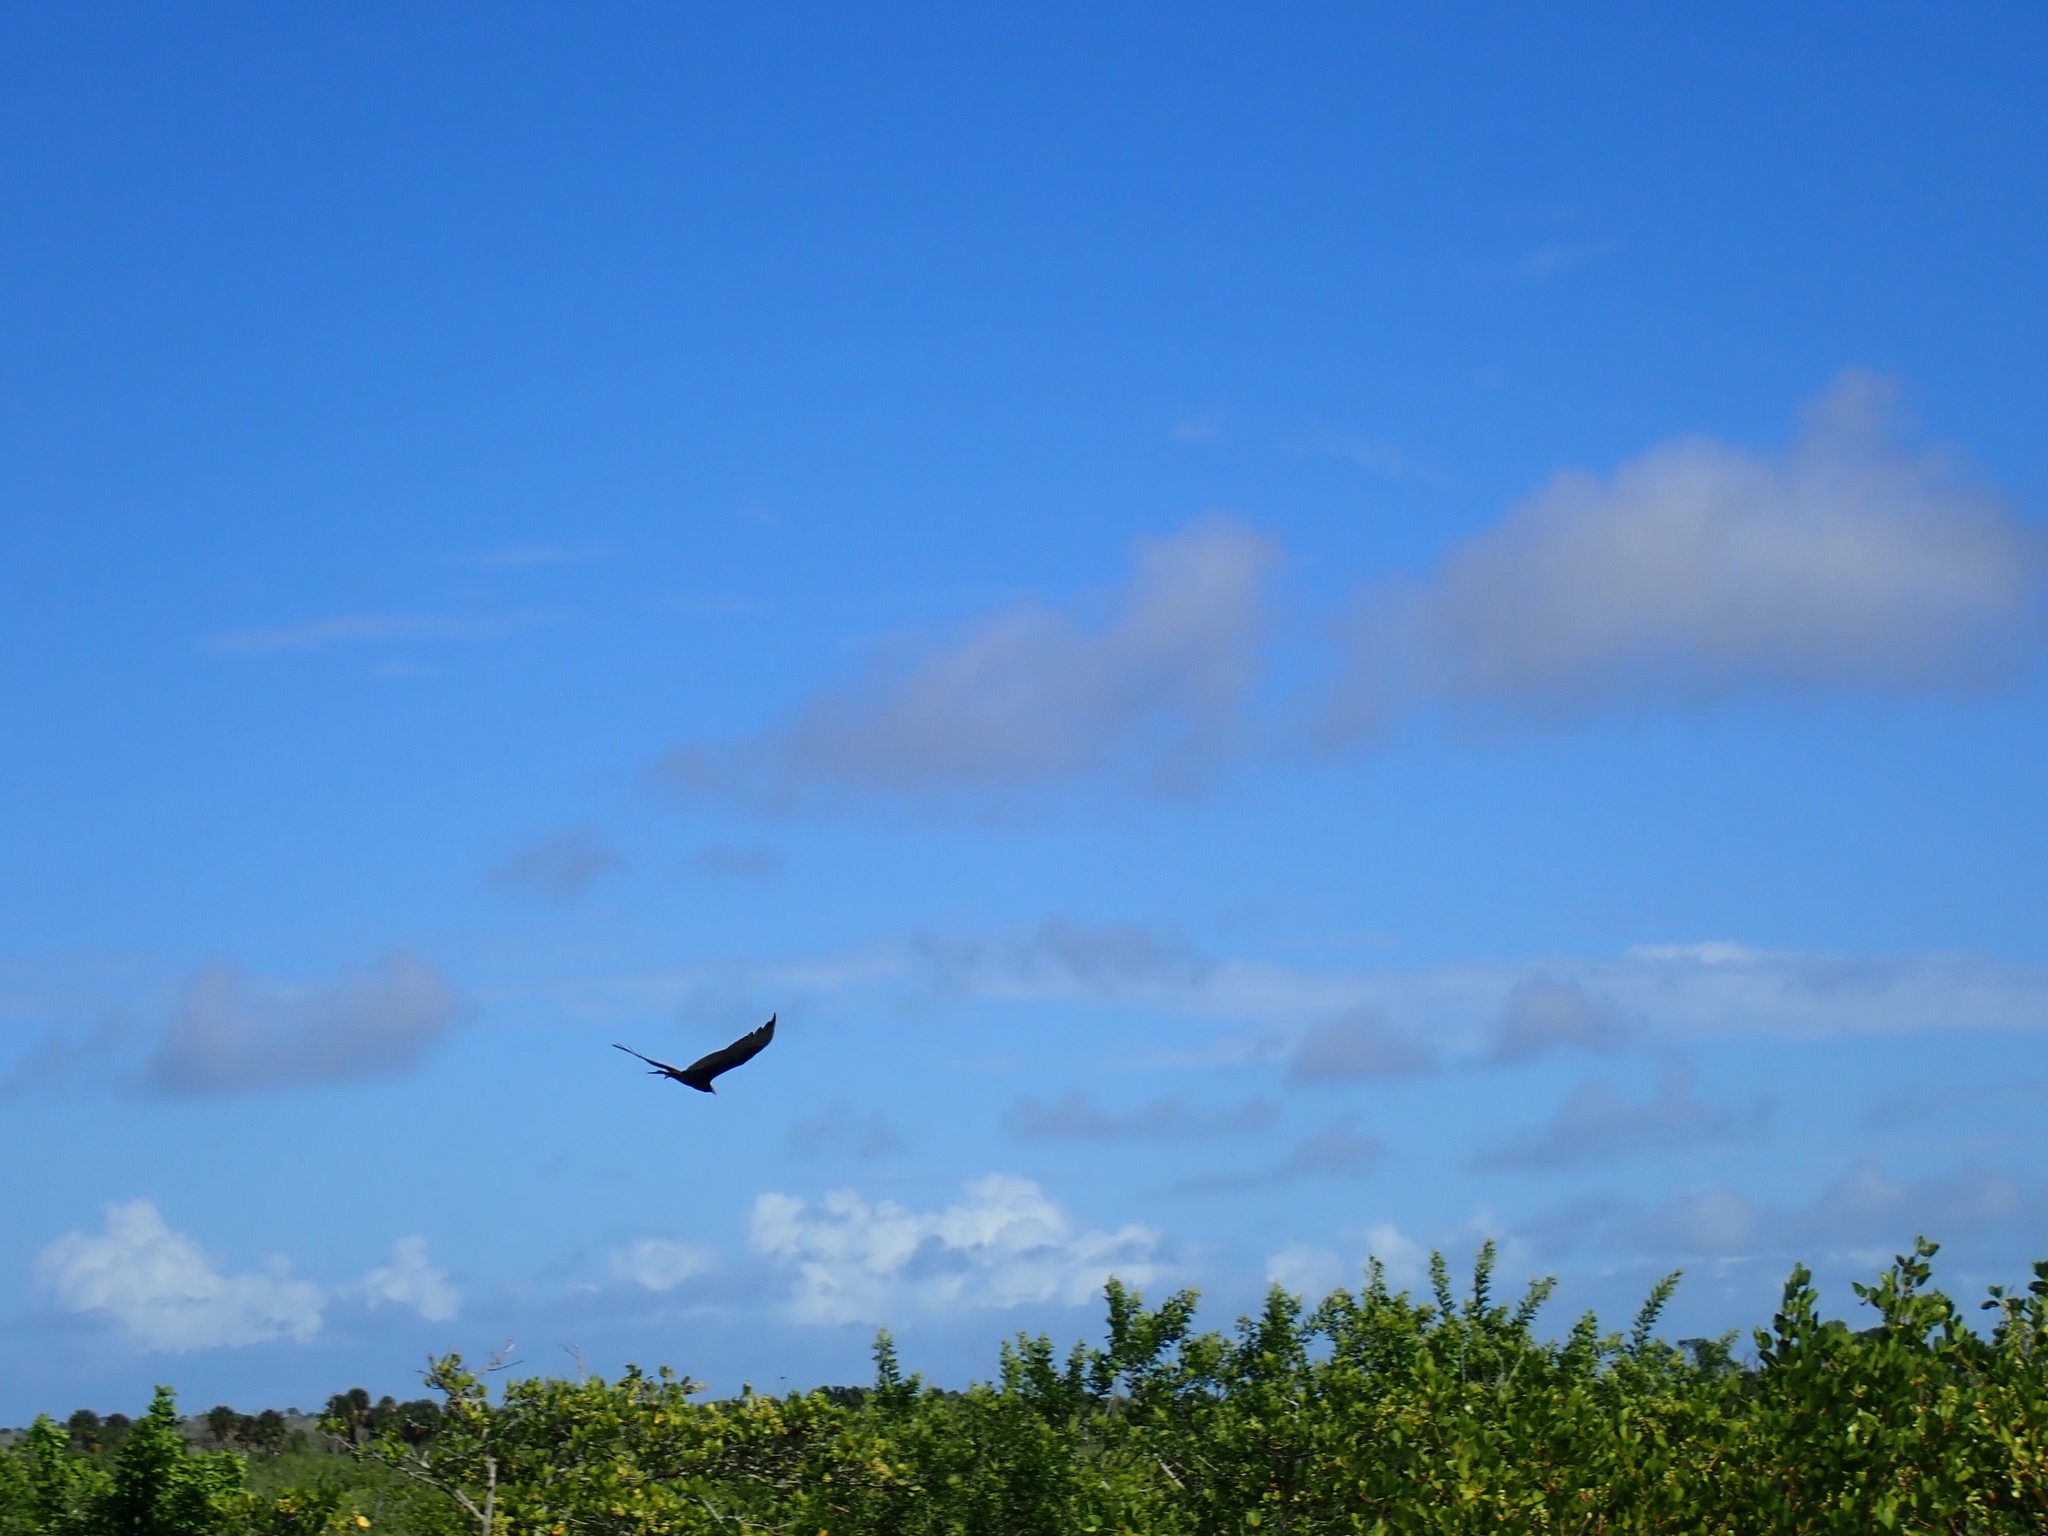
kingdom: Animalia
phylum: Chordata
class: Aves
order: Accipitriformes
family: Cathartidae
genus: Cathartes
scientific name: Cathartes aura
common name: Turkey vulture
